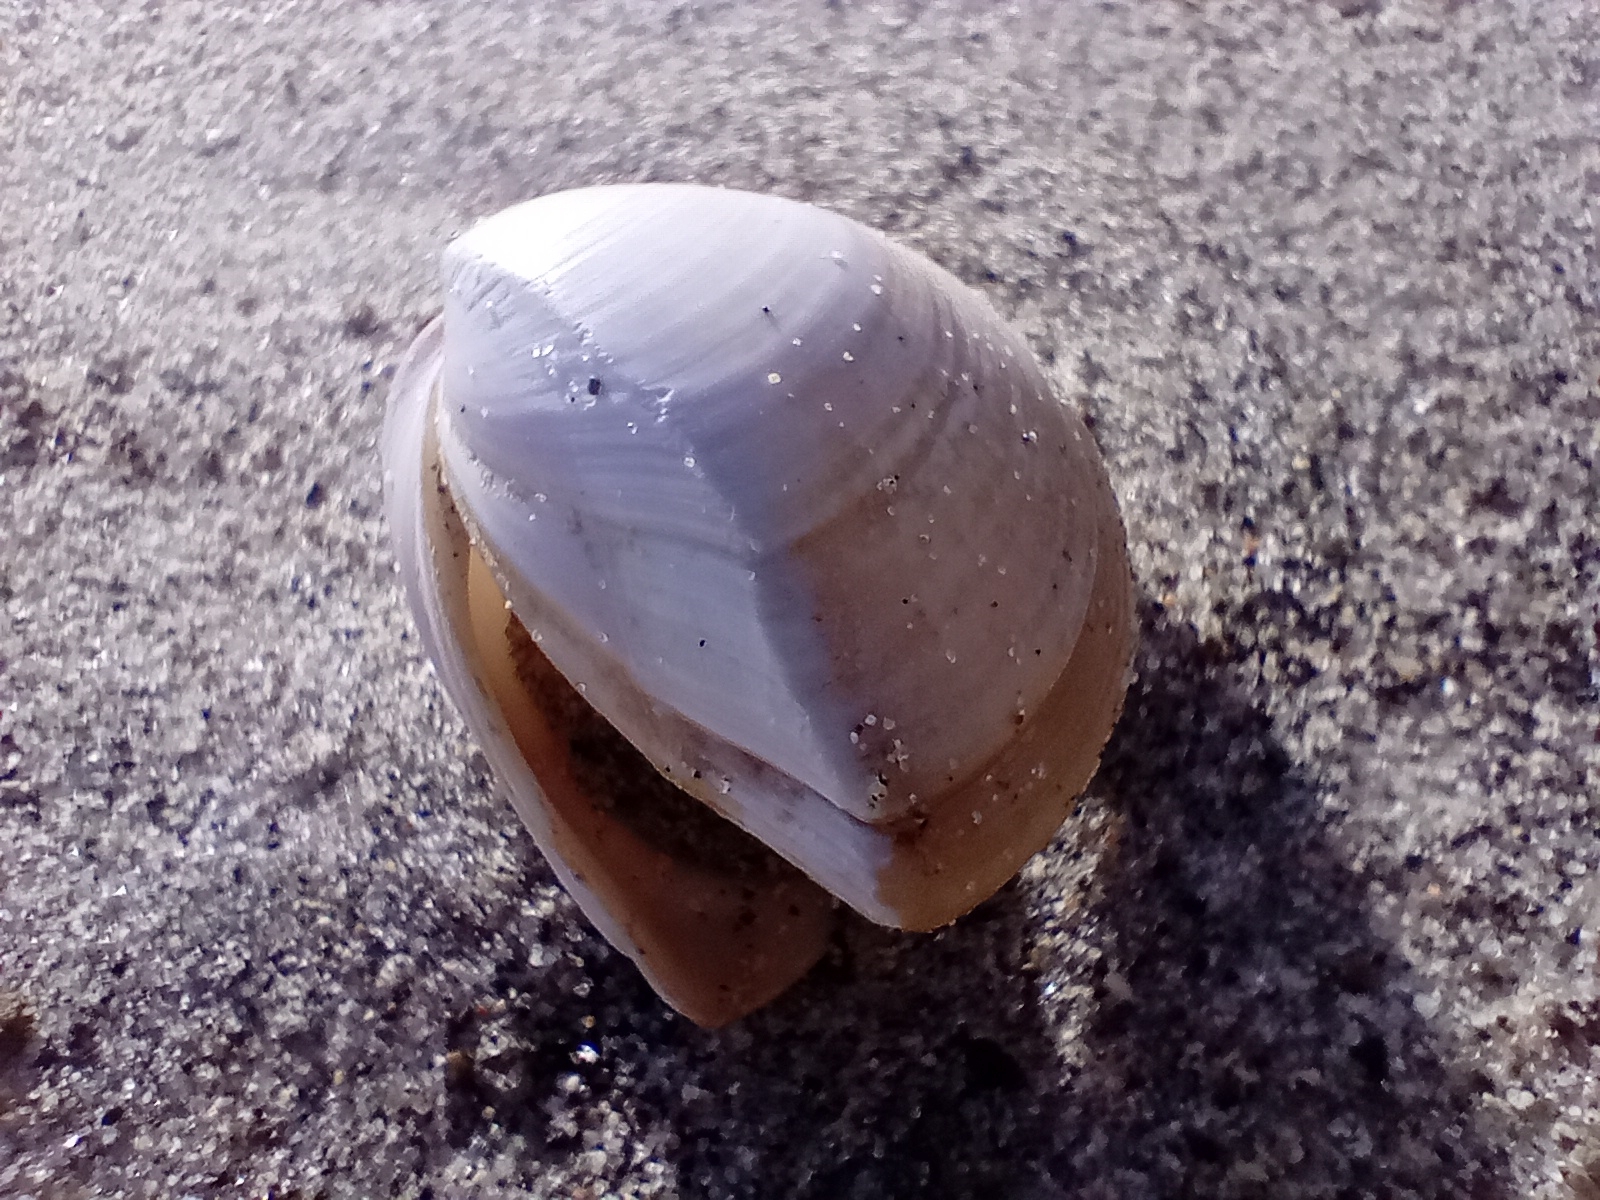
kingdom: Animalia
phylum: Mollusca
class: Bivalvia
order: Venerida
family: Mactridae
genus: Crassula
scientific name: Crassula aequilatera
